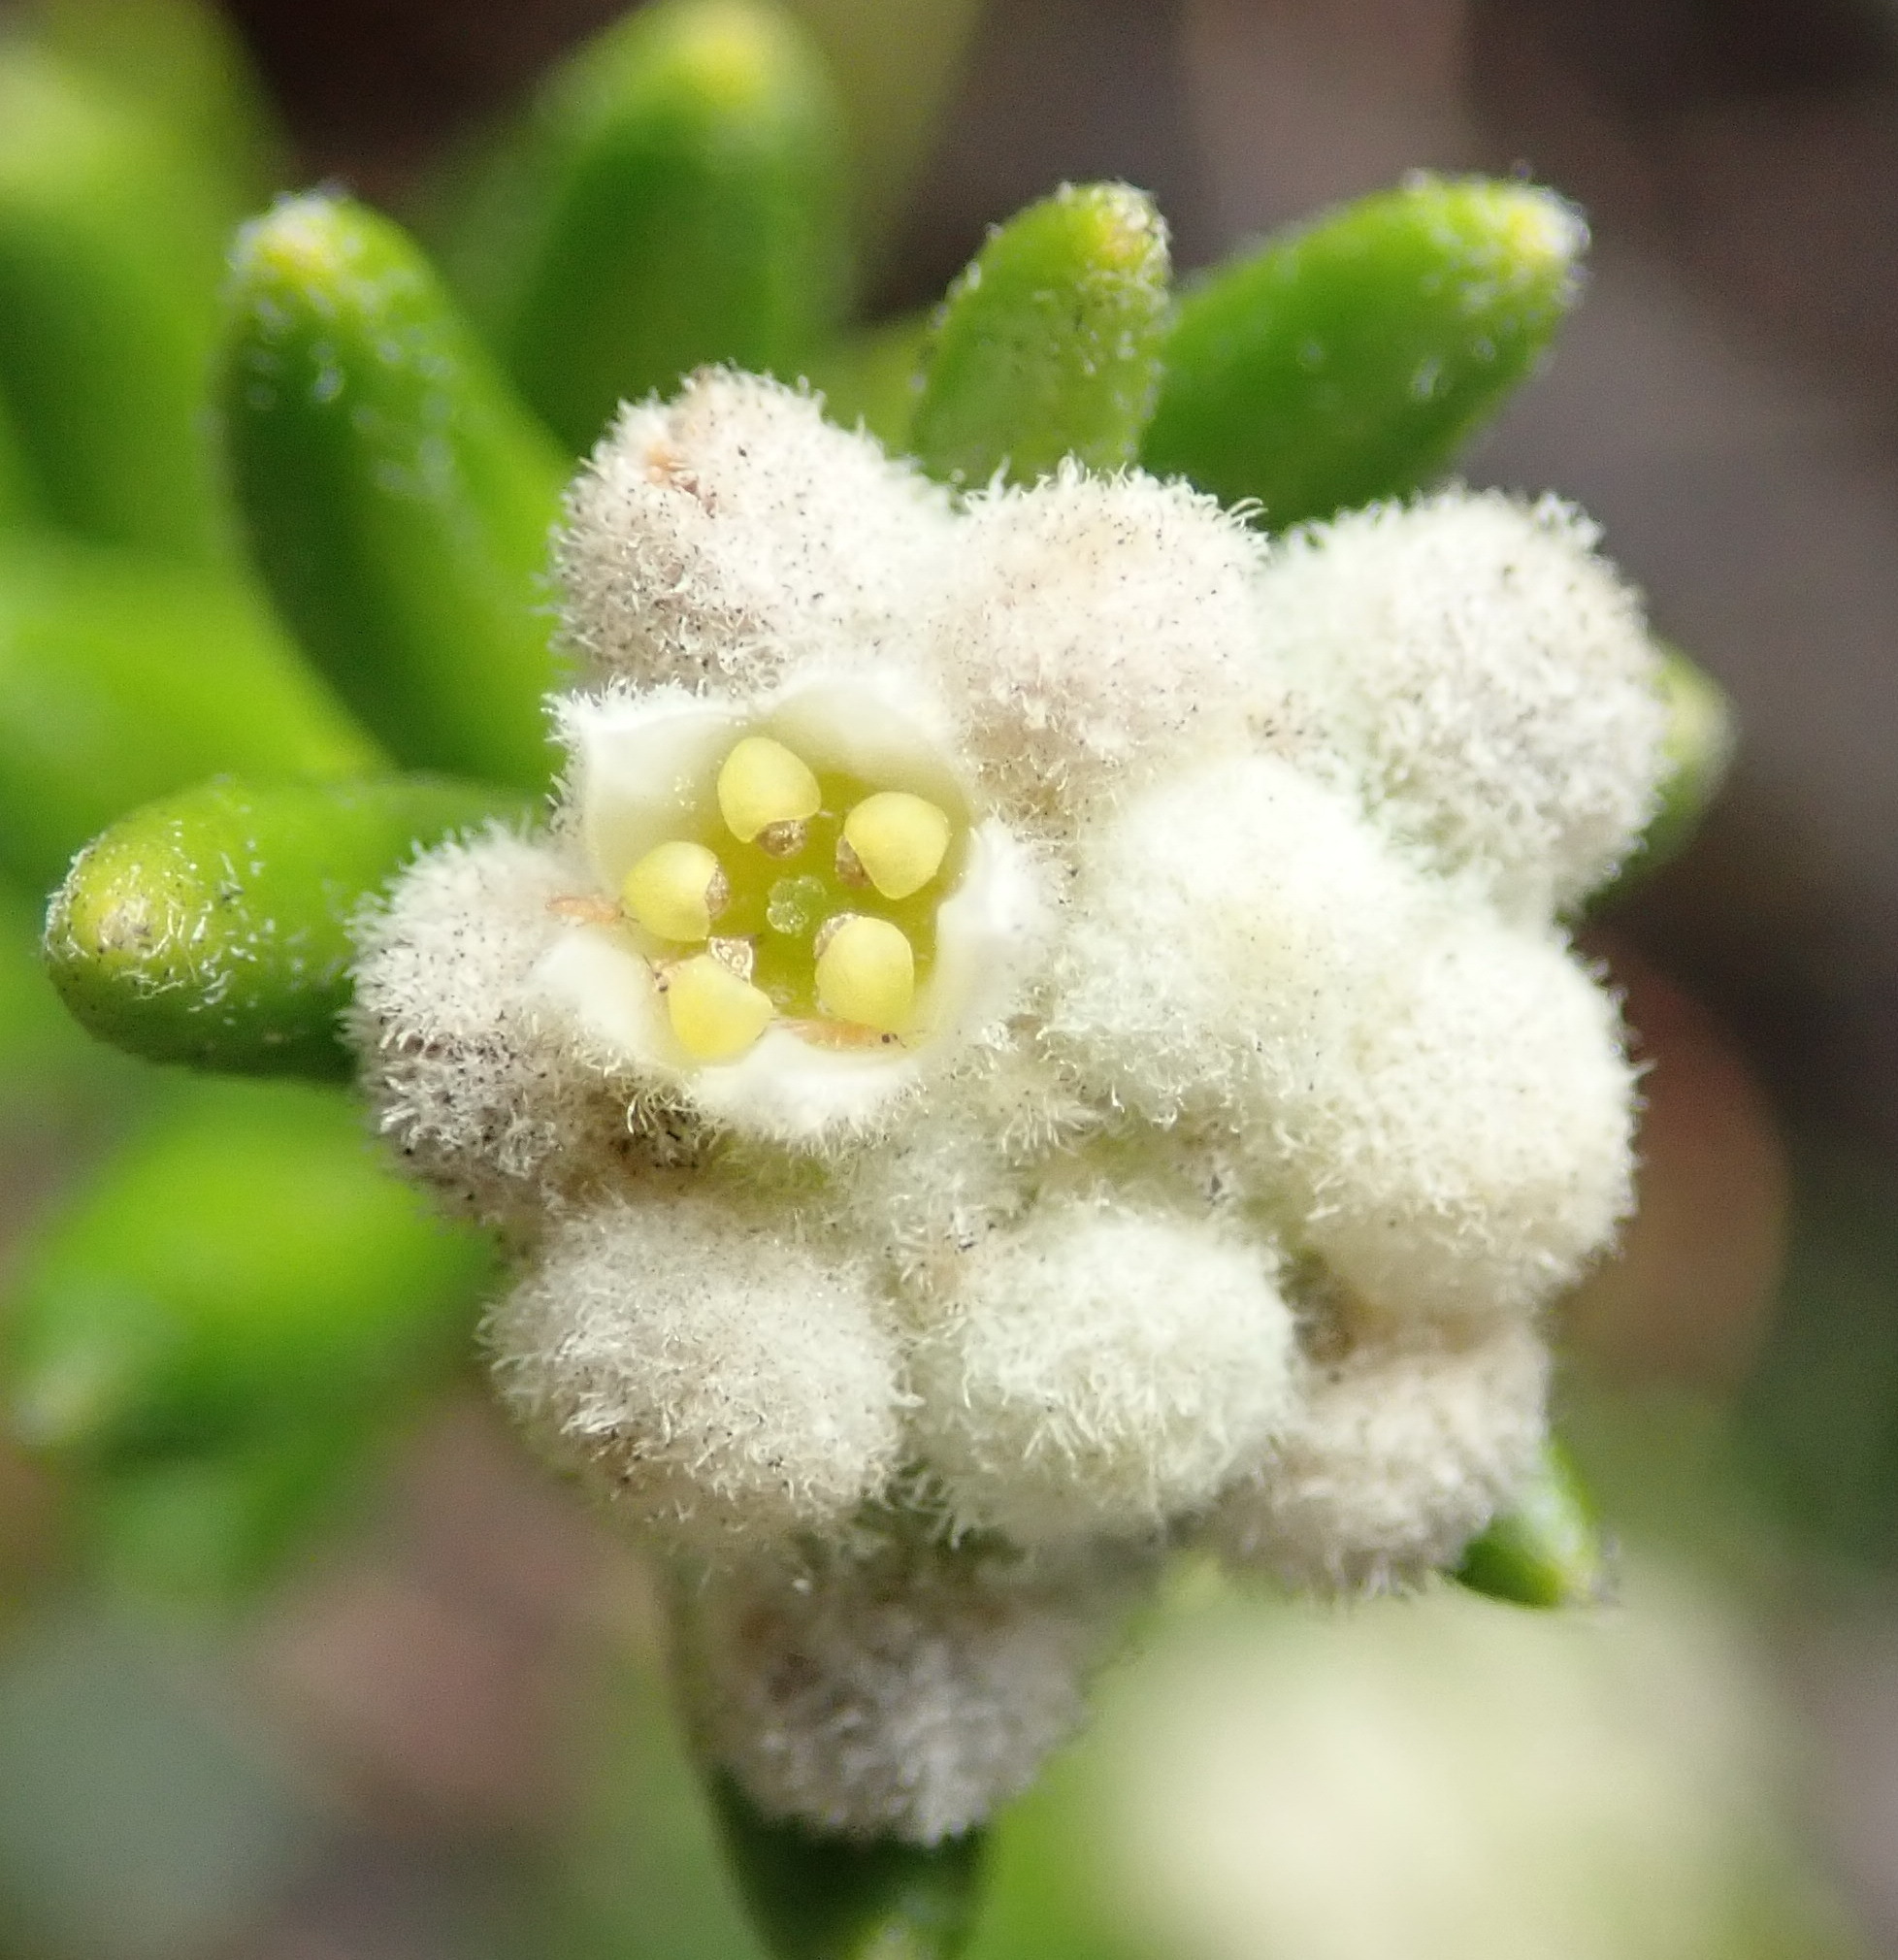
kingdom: Plantae
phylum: Tracheophyta
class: Magnoliopsida
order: Rosales
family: Rhamnaceae
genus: Phylica
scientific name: Phylica lasiocarpa
